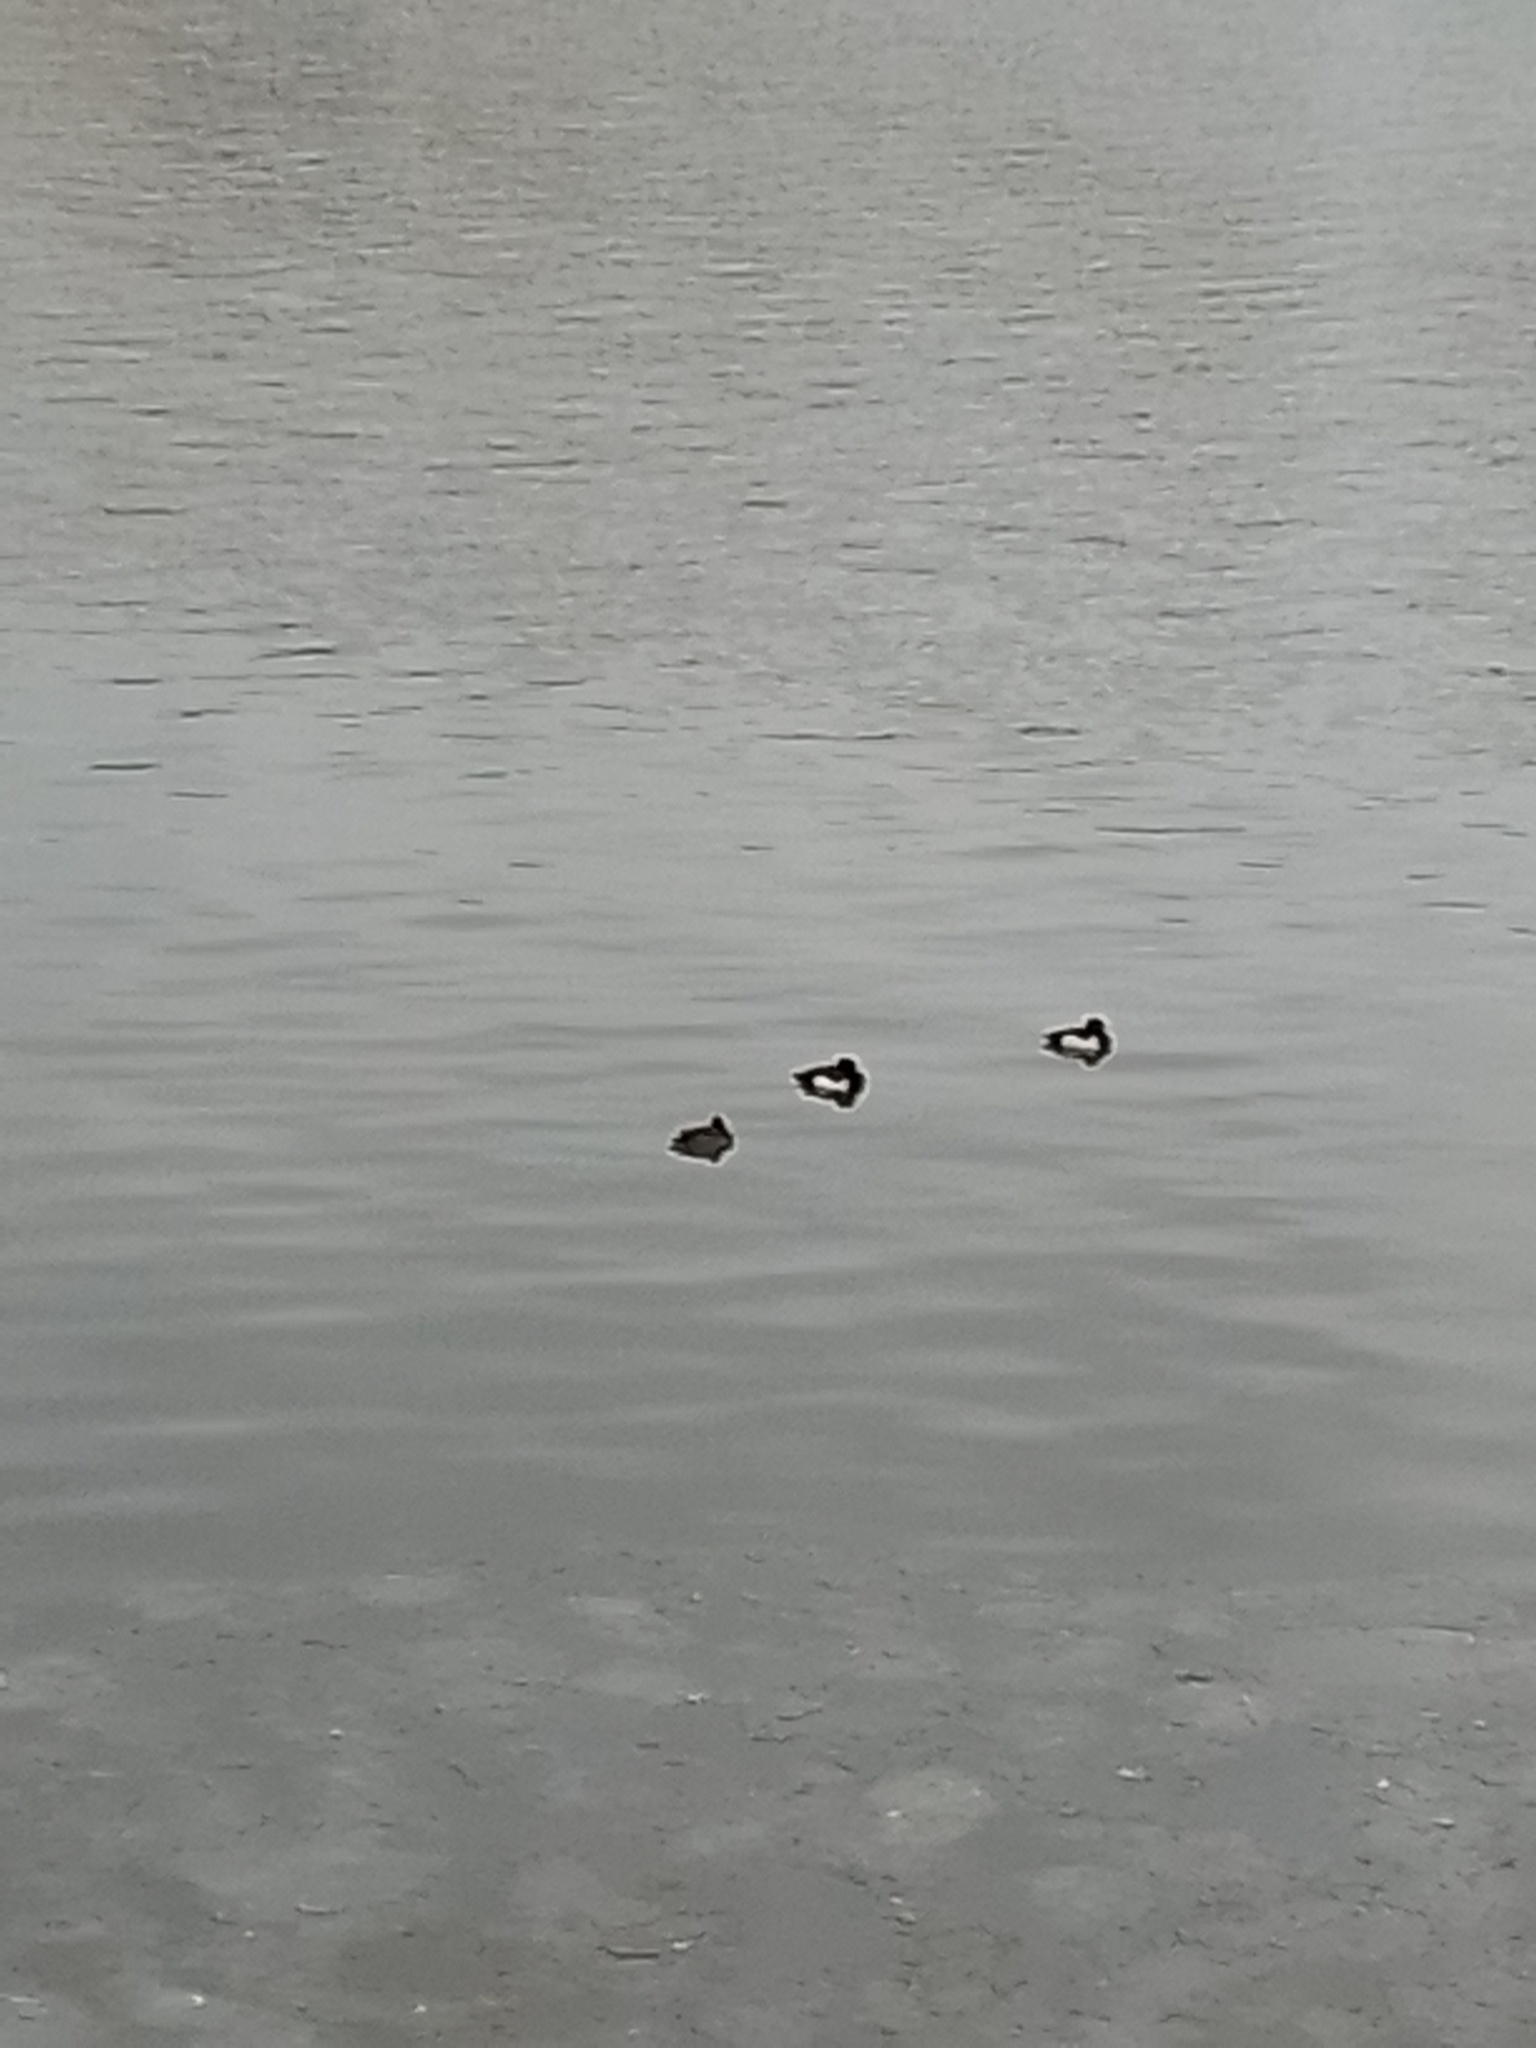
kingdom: Animalia
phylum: Chordata
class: Aves
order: Anseriformes
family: Anatidae
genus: Aythya
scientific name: Aythya fuligula
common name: Tufted duck
